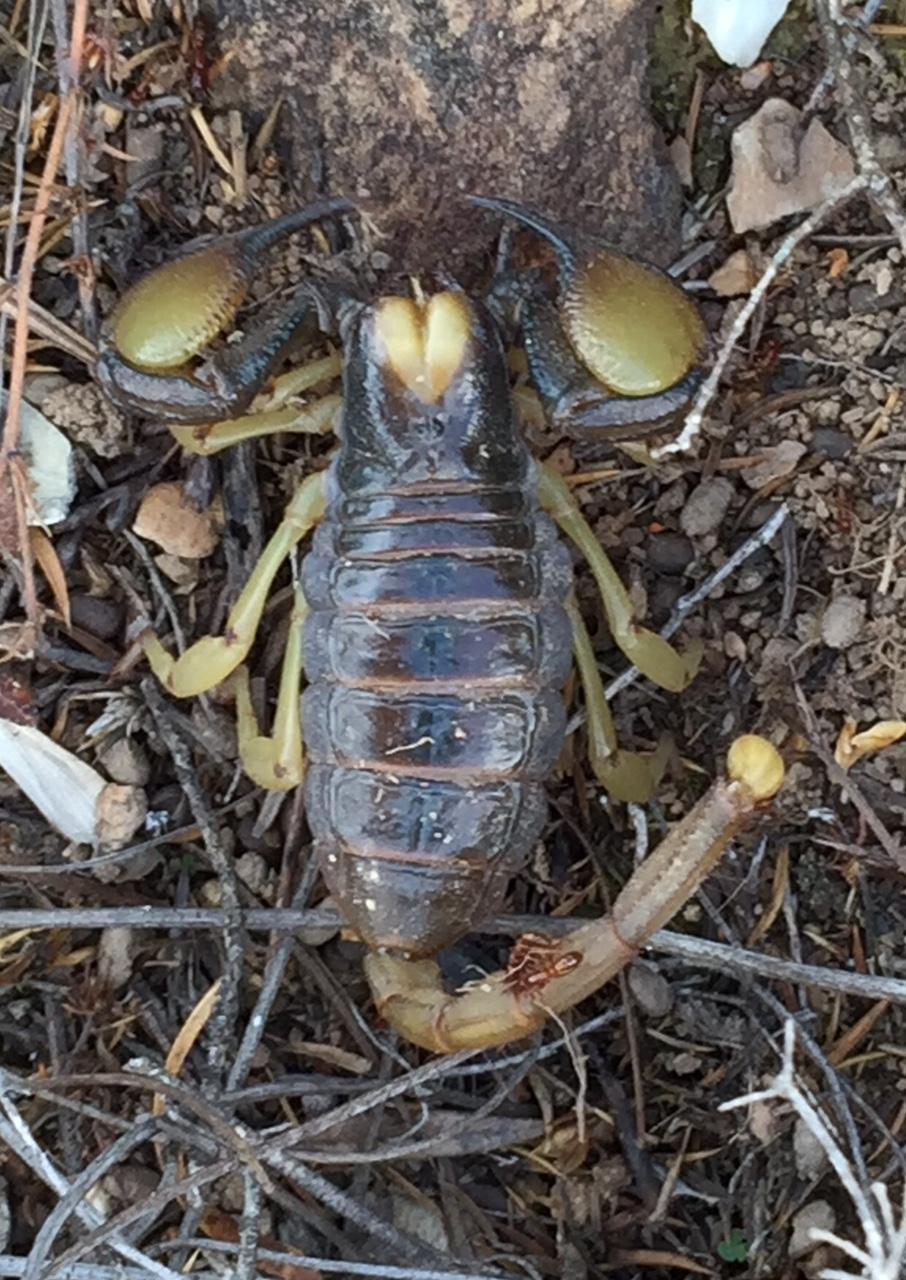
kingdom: Animalia
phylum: Arthropoda
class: Arachnida
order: Scorpiones
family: Scorpionidae
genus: Opistophthalmus
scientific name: Opistophthalmus karrooensis
